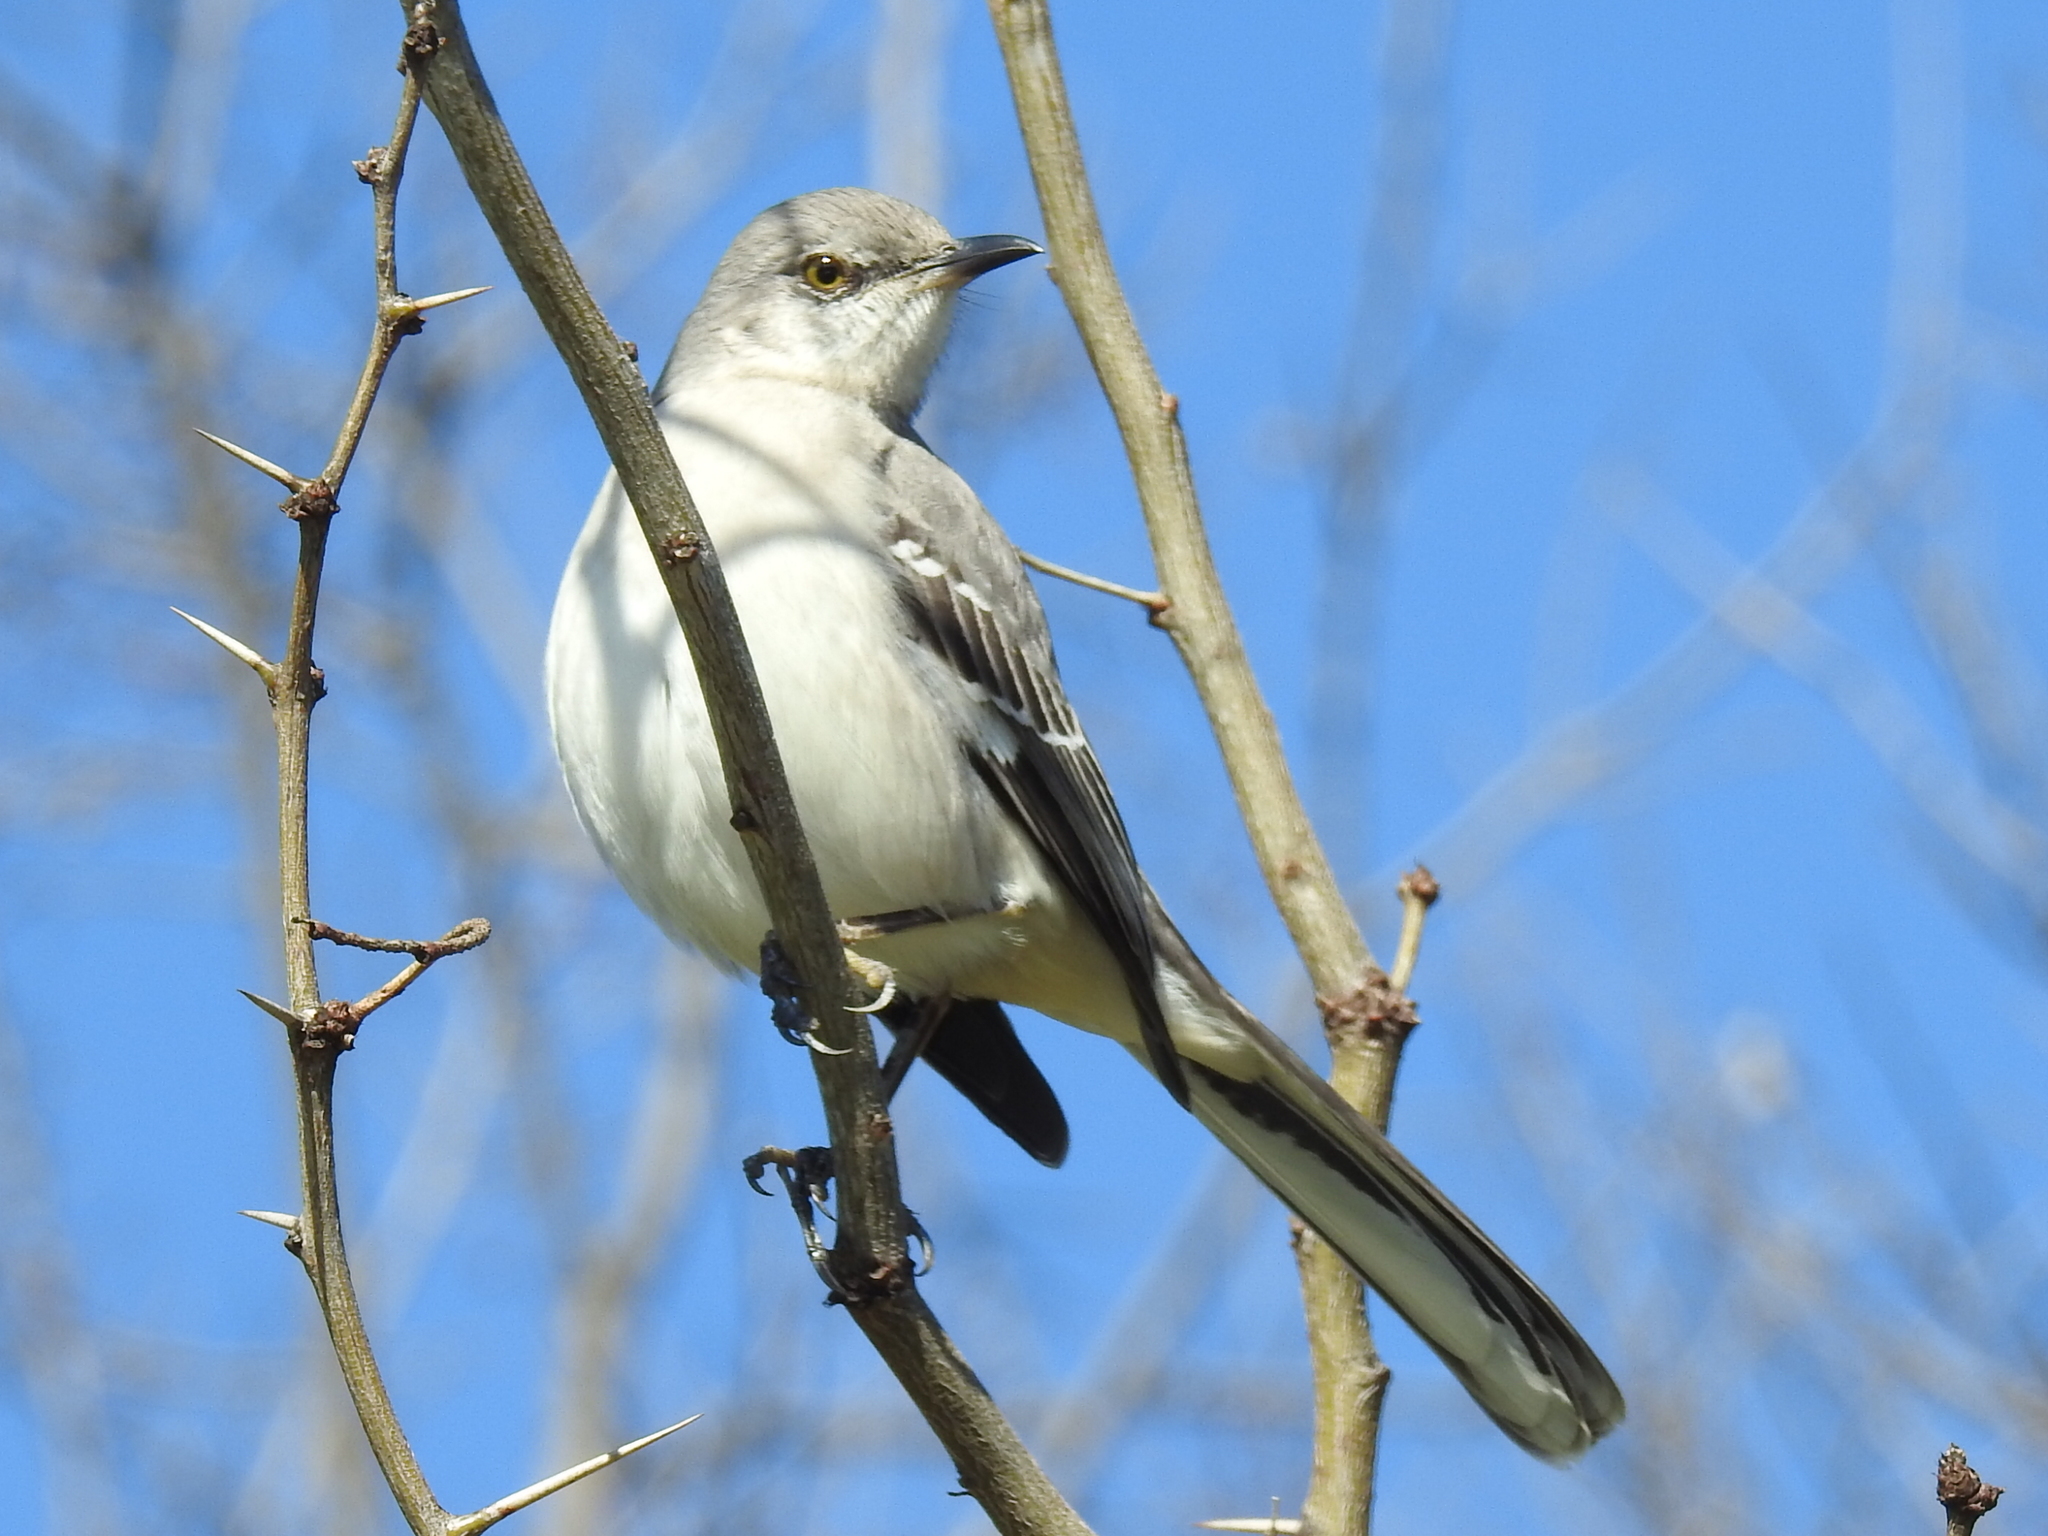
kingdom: Animalia
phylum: Chordata
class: Aves
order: Passeriformes
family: Mimidae
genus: Mimus
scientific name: Mimus polyglottos
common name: Northern mockingbird
